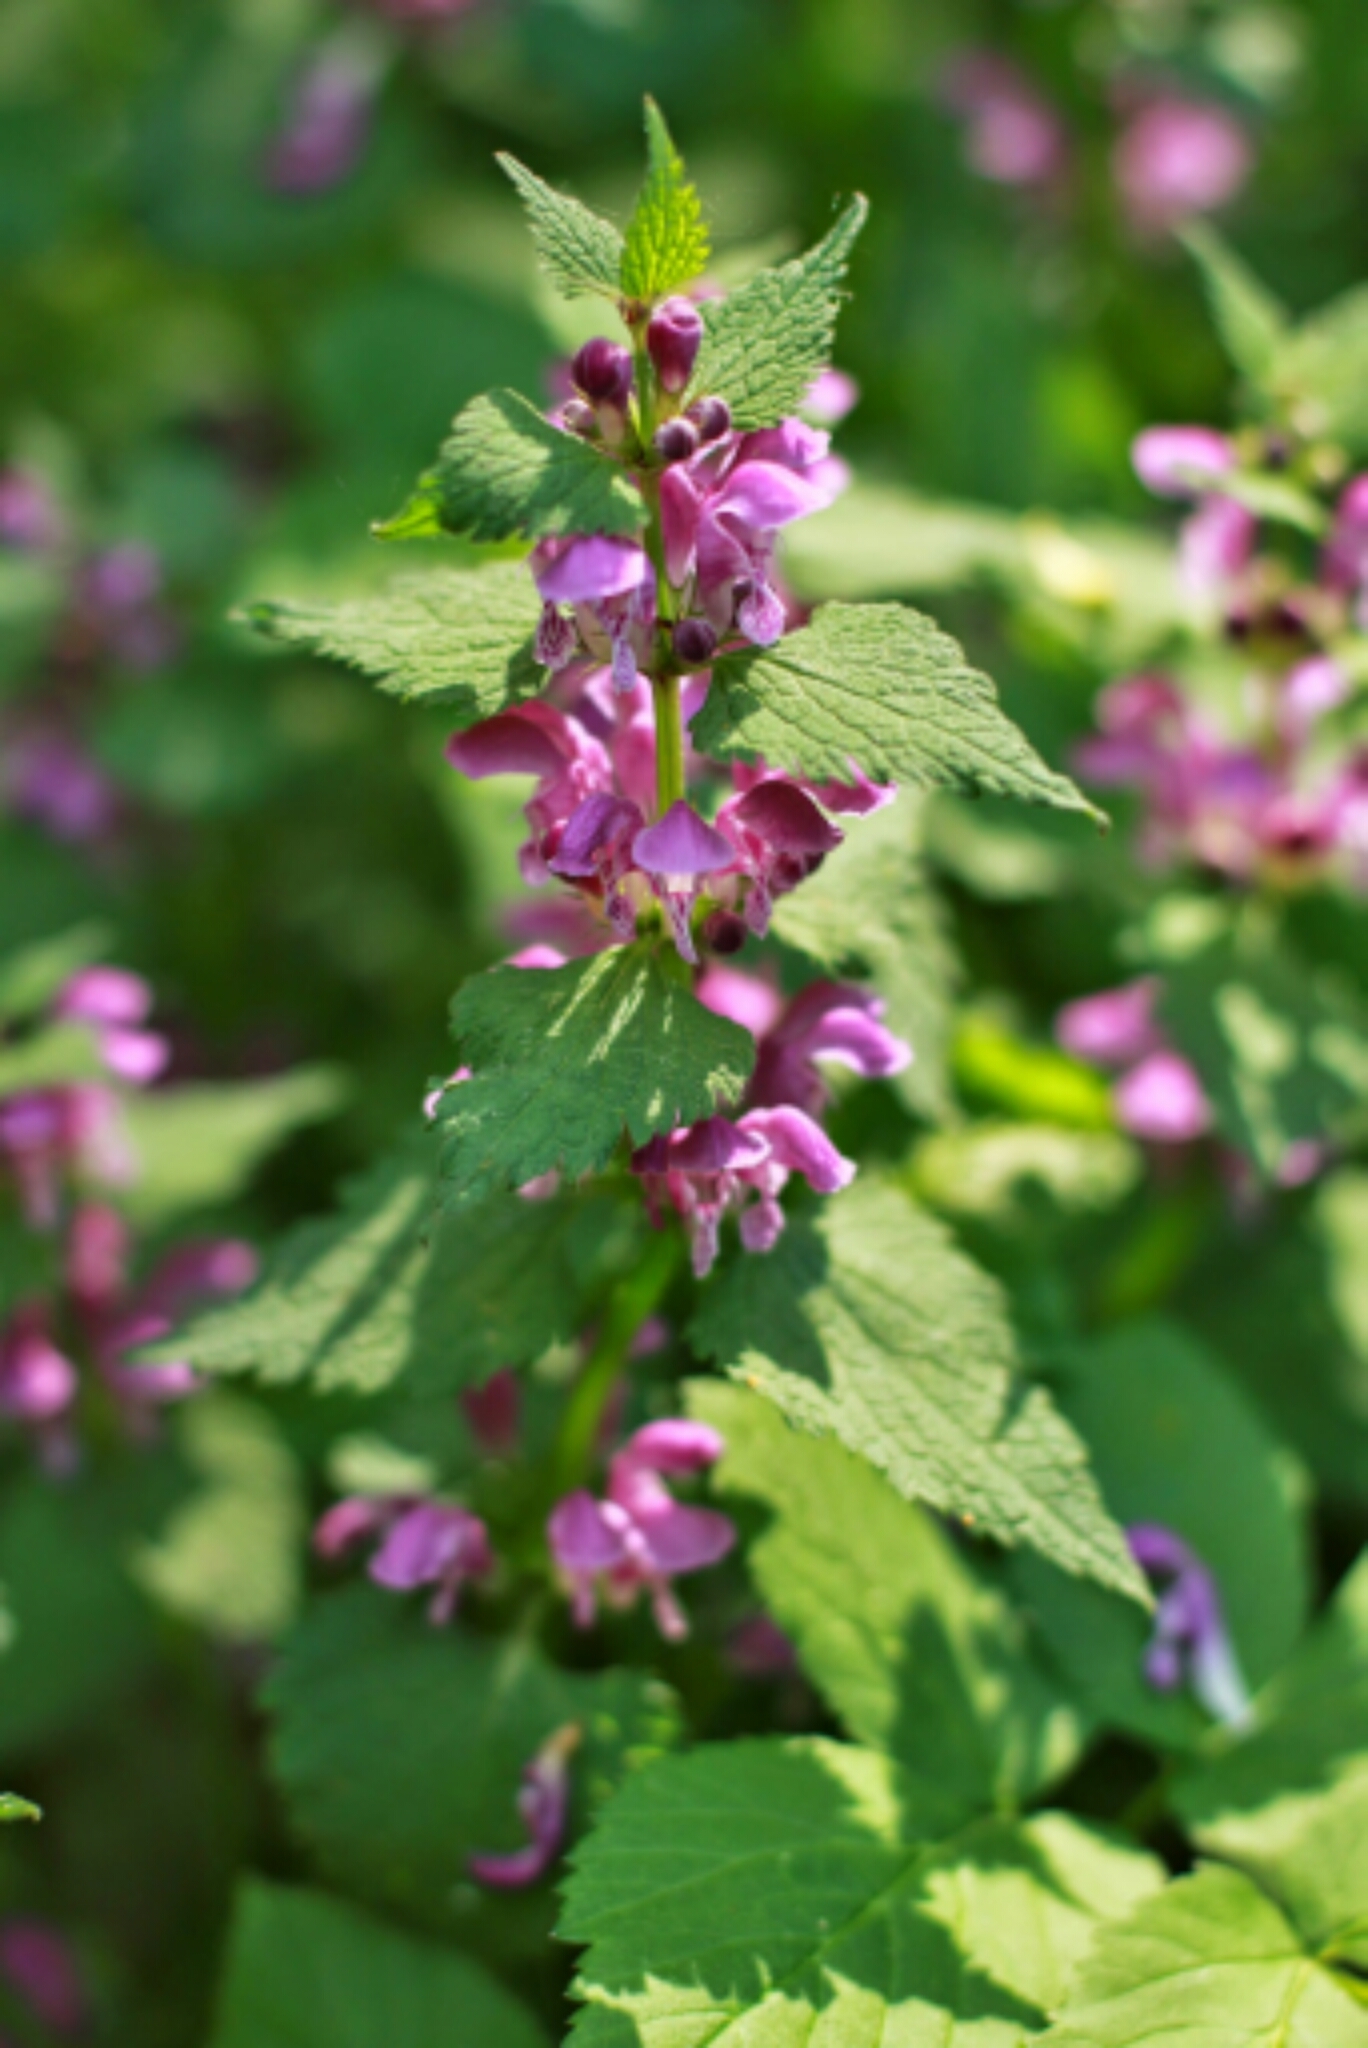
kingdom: Plantae
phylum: Tracheophyta
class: Magnoliopsida
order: Lamiales
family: Lamiaceae
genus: Lamium
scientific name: Lamium maculatum
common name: Spotted dead-nettle
